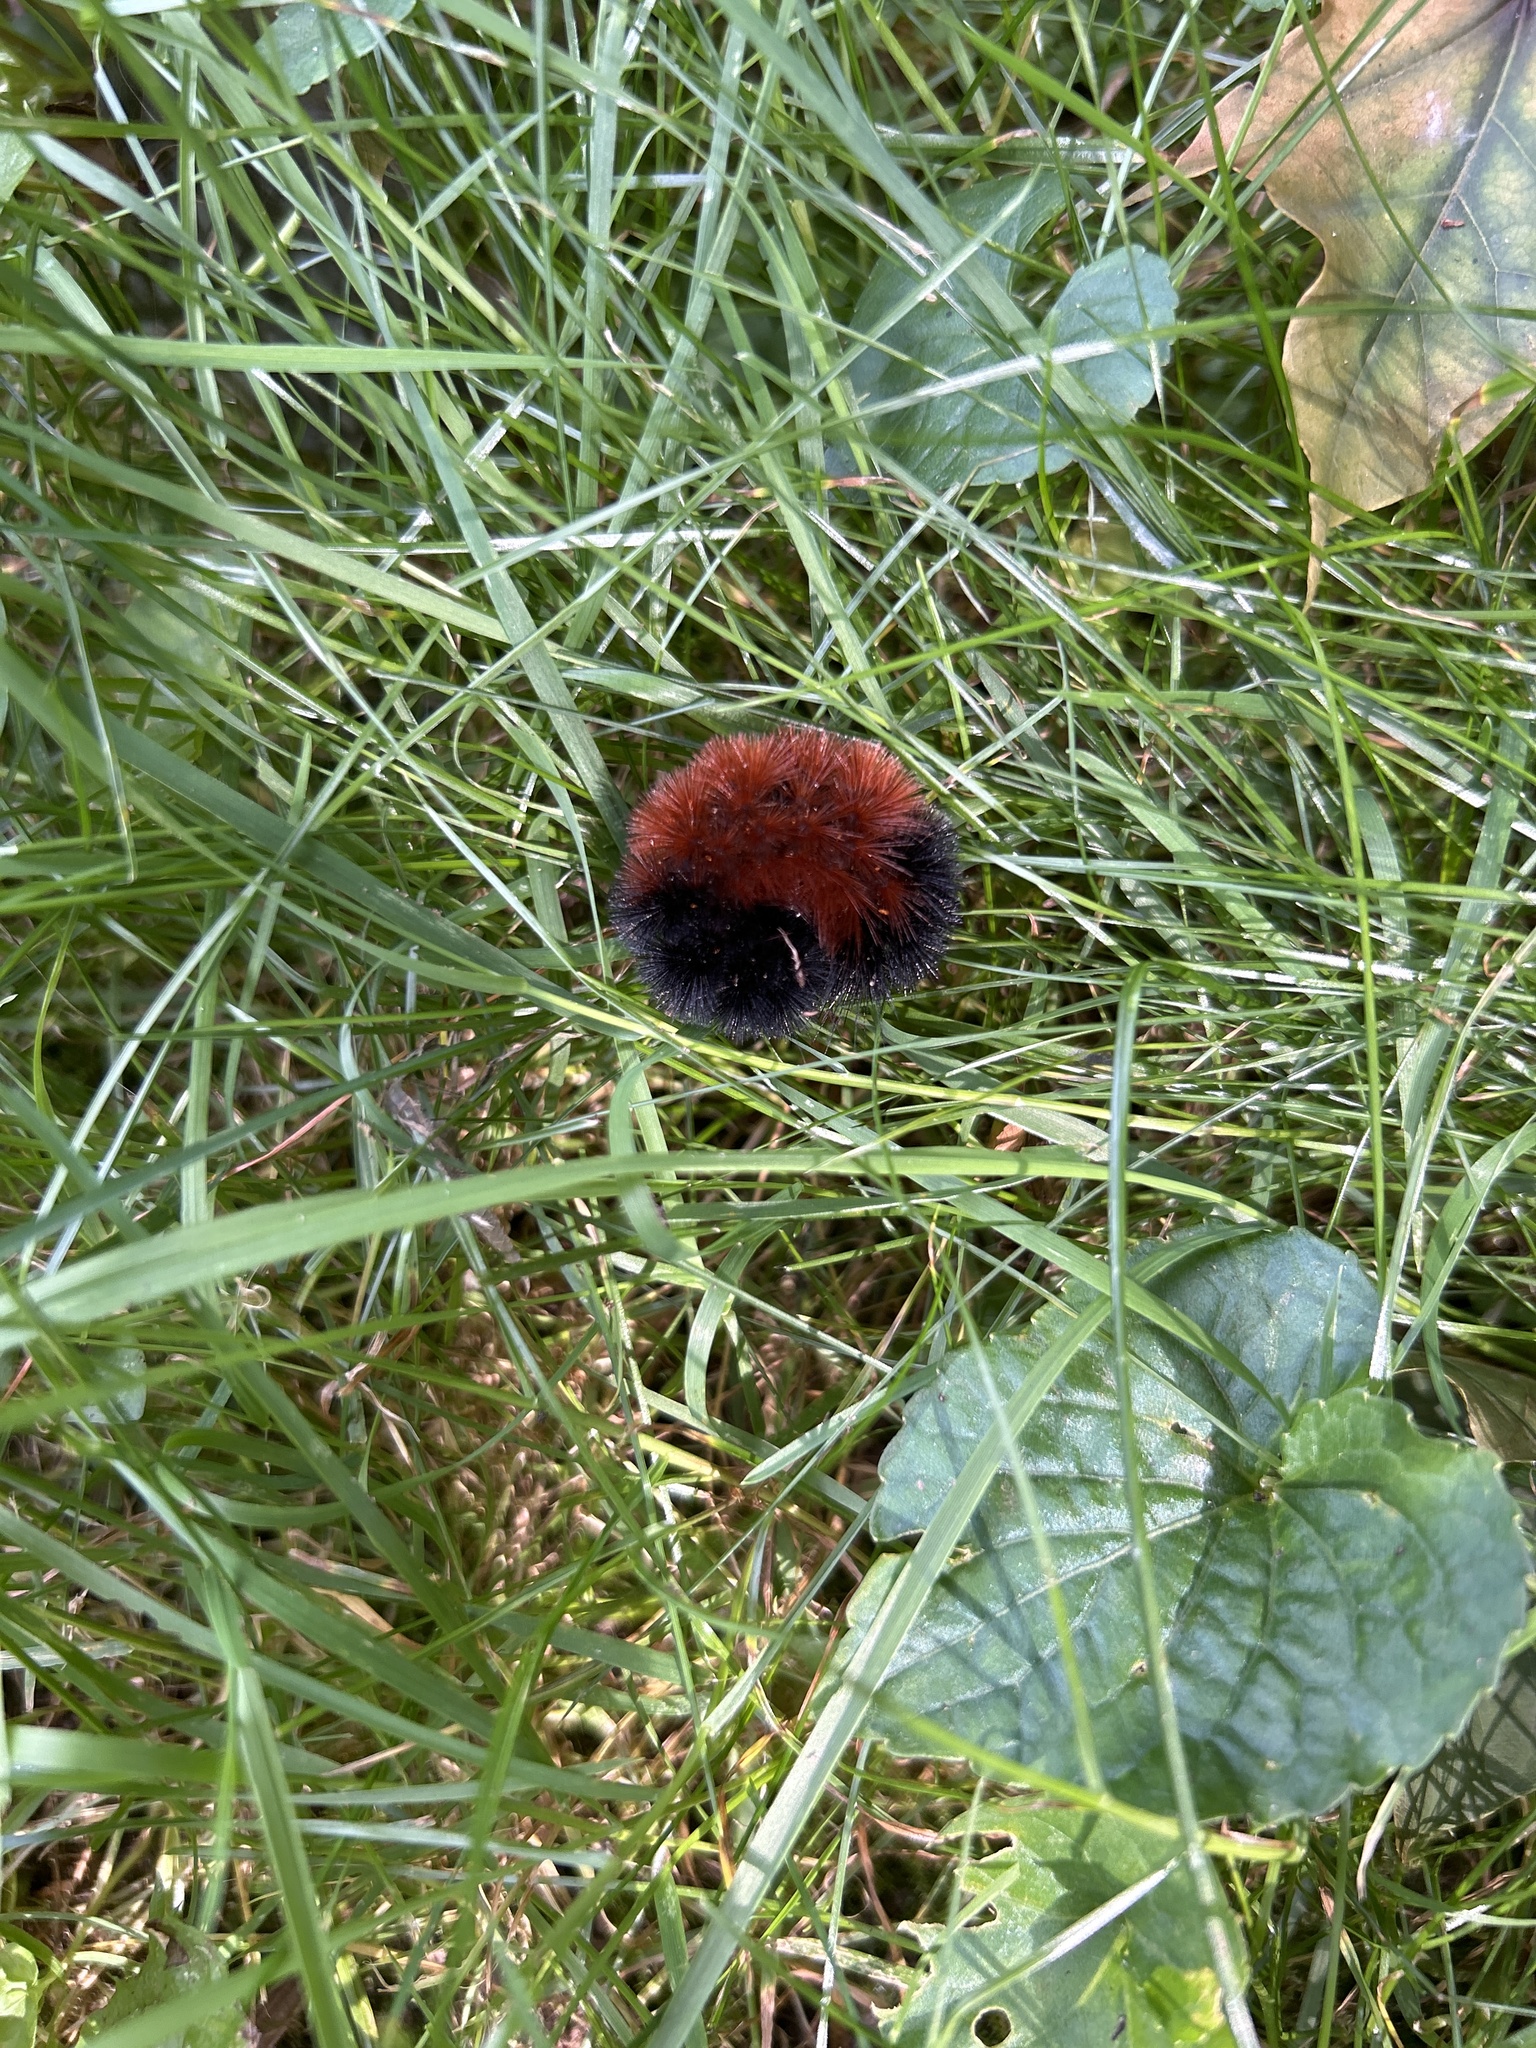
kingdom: Animalia
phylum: Arthropoda
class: Insecta
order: Lepidoptera
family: Erebidae
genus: Pyrrharctia
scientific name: Pyrrharctia isabella
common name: Isabella tiger moth
